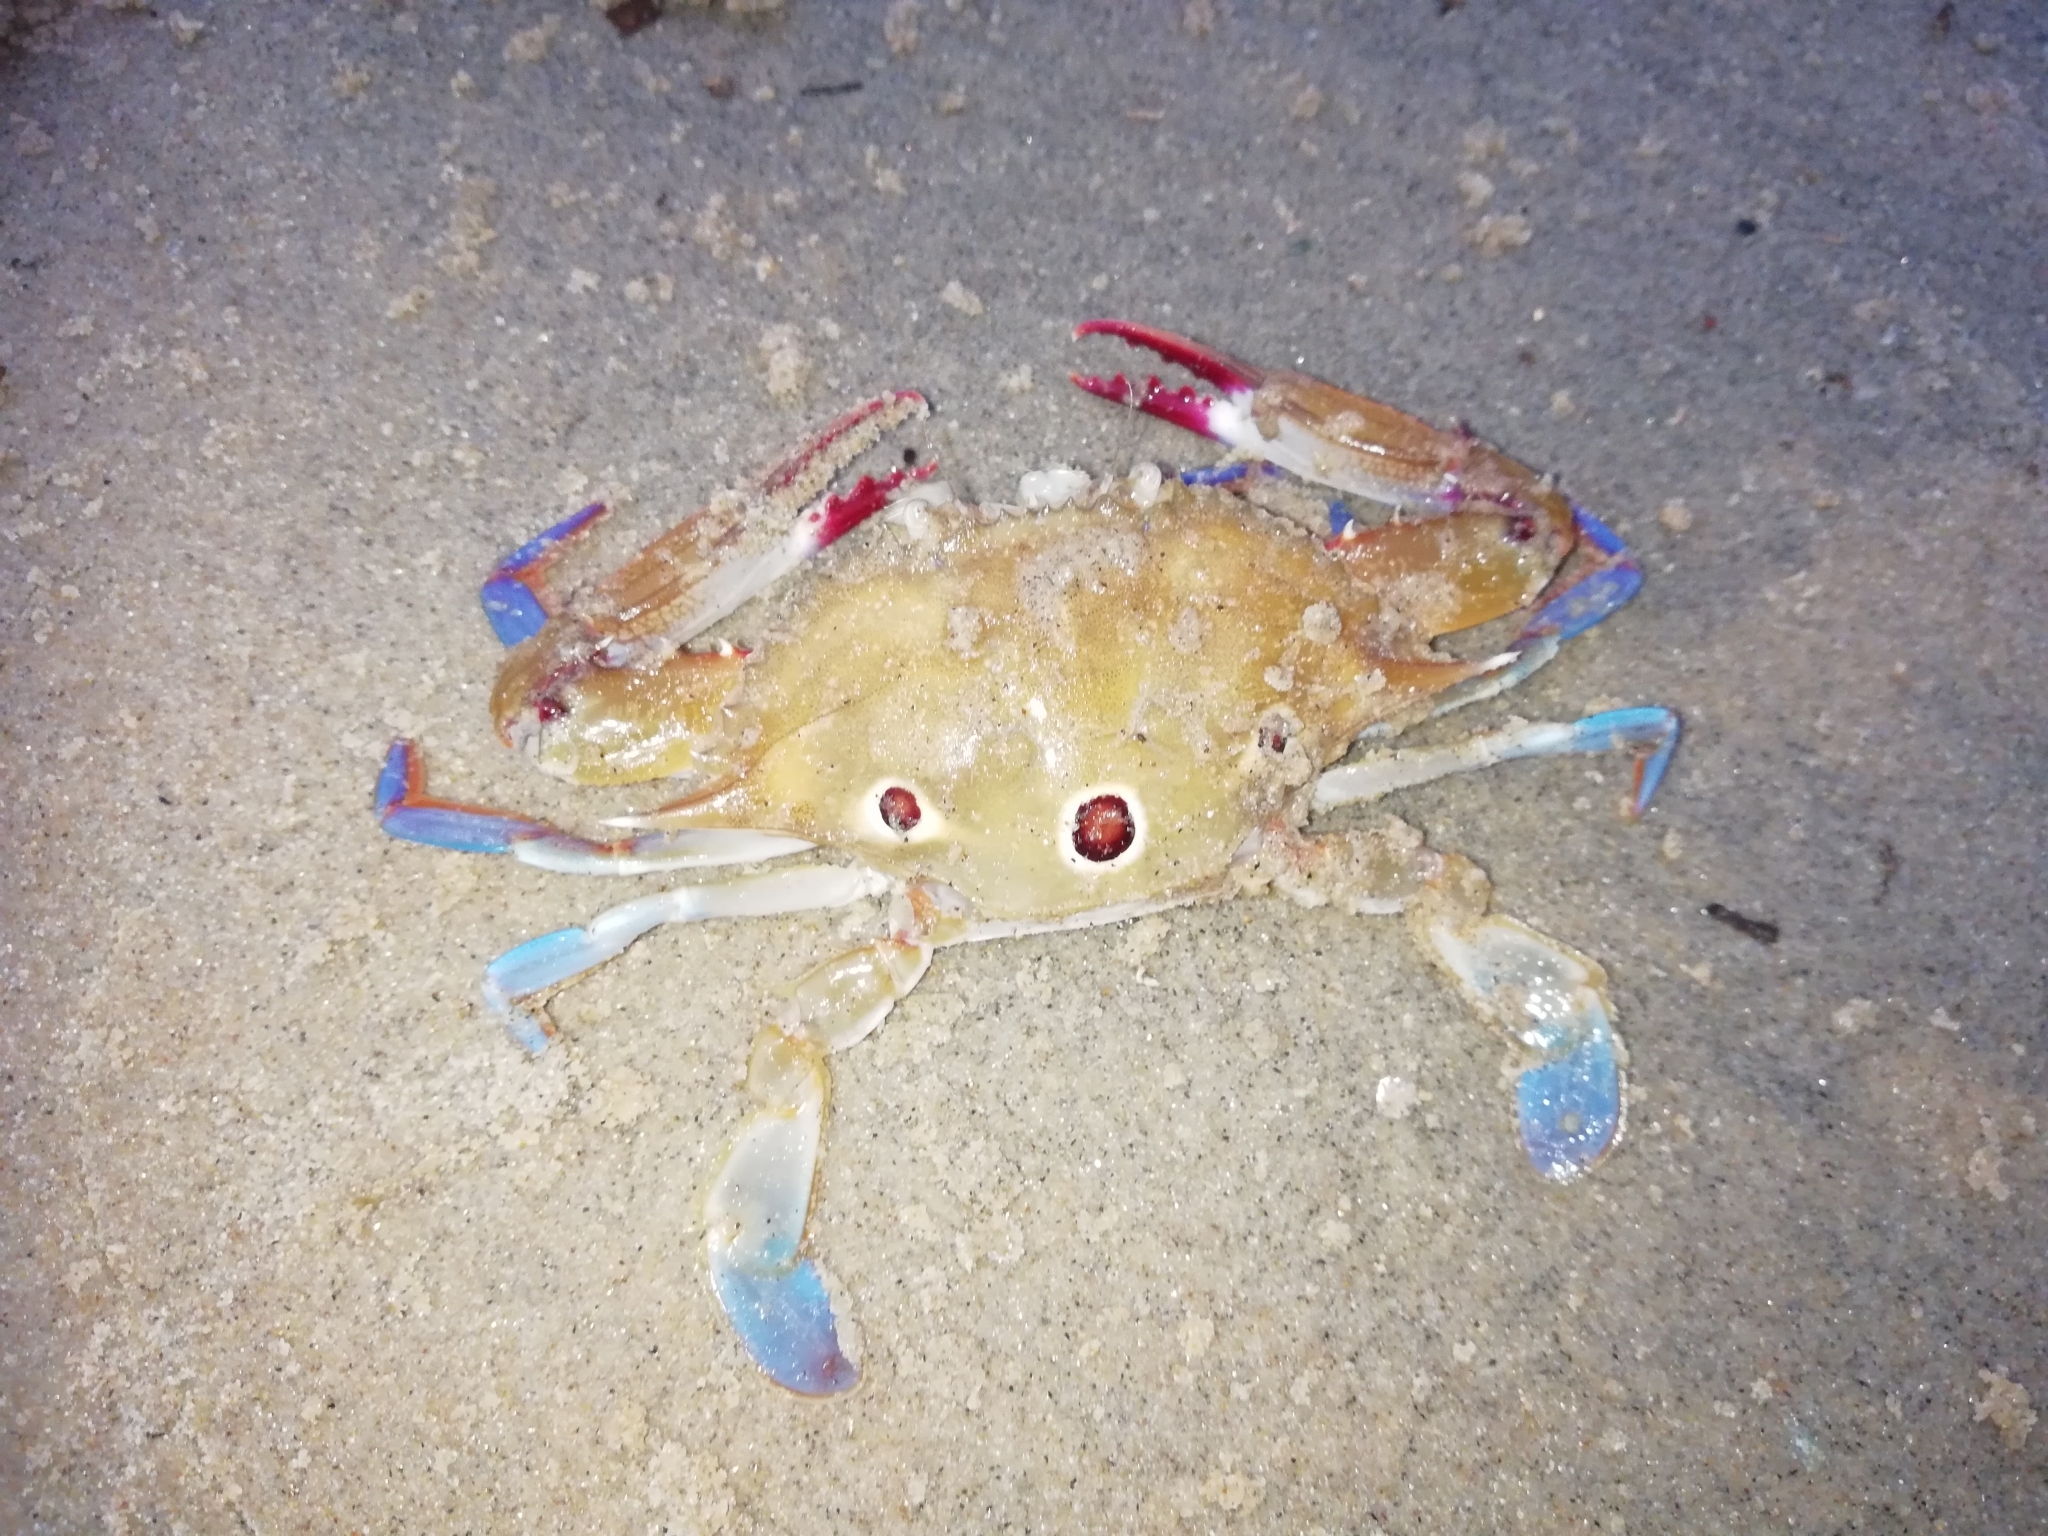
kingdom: Animalia
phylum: Arthropoda
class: Malacostraca
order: Decapoda
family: Portunidae
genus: Portunus
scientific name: Portunus sanguinolentus
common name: Blood-spotted swimming crab
